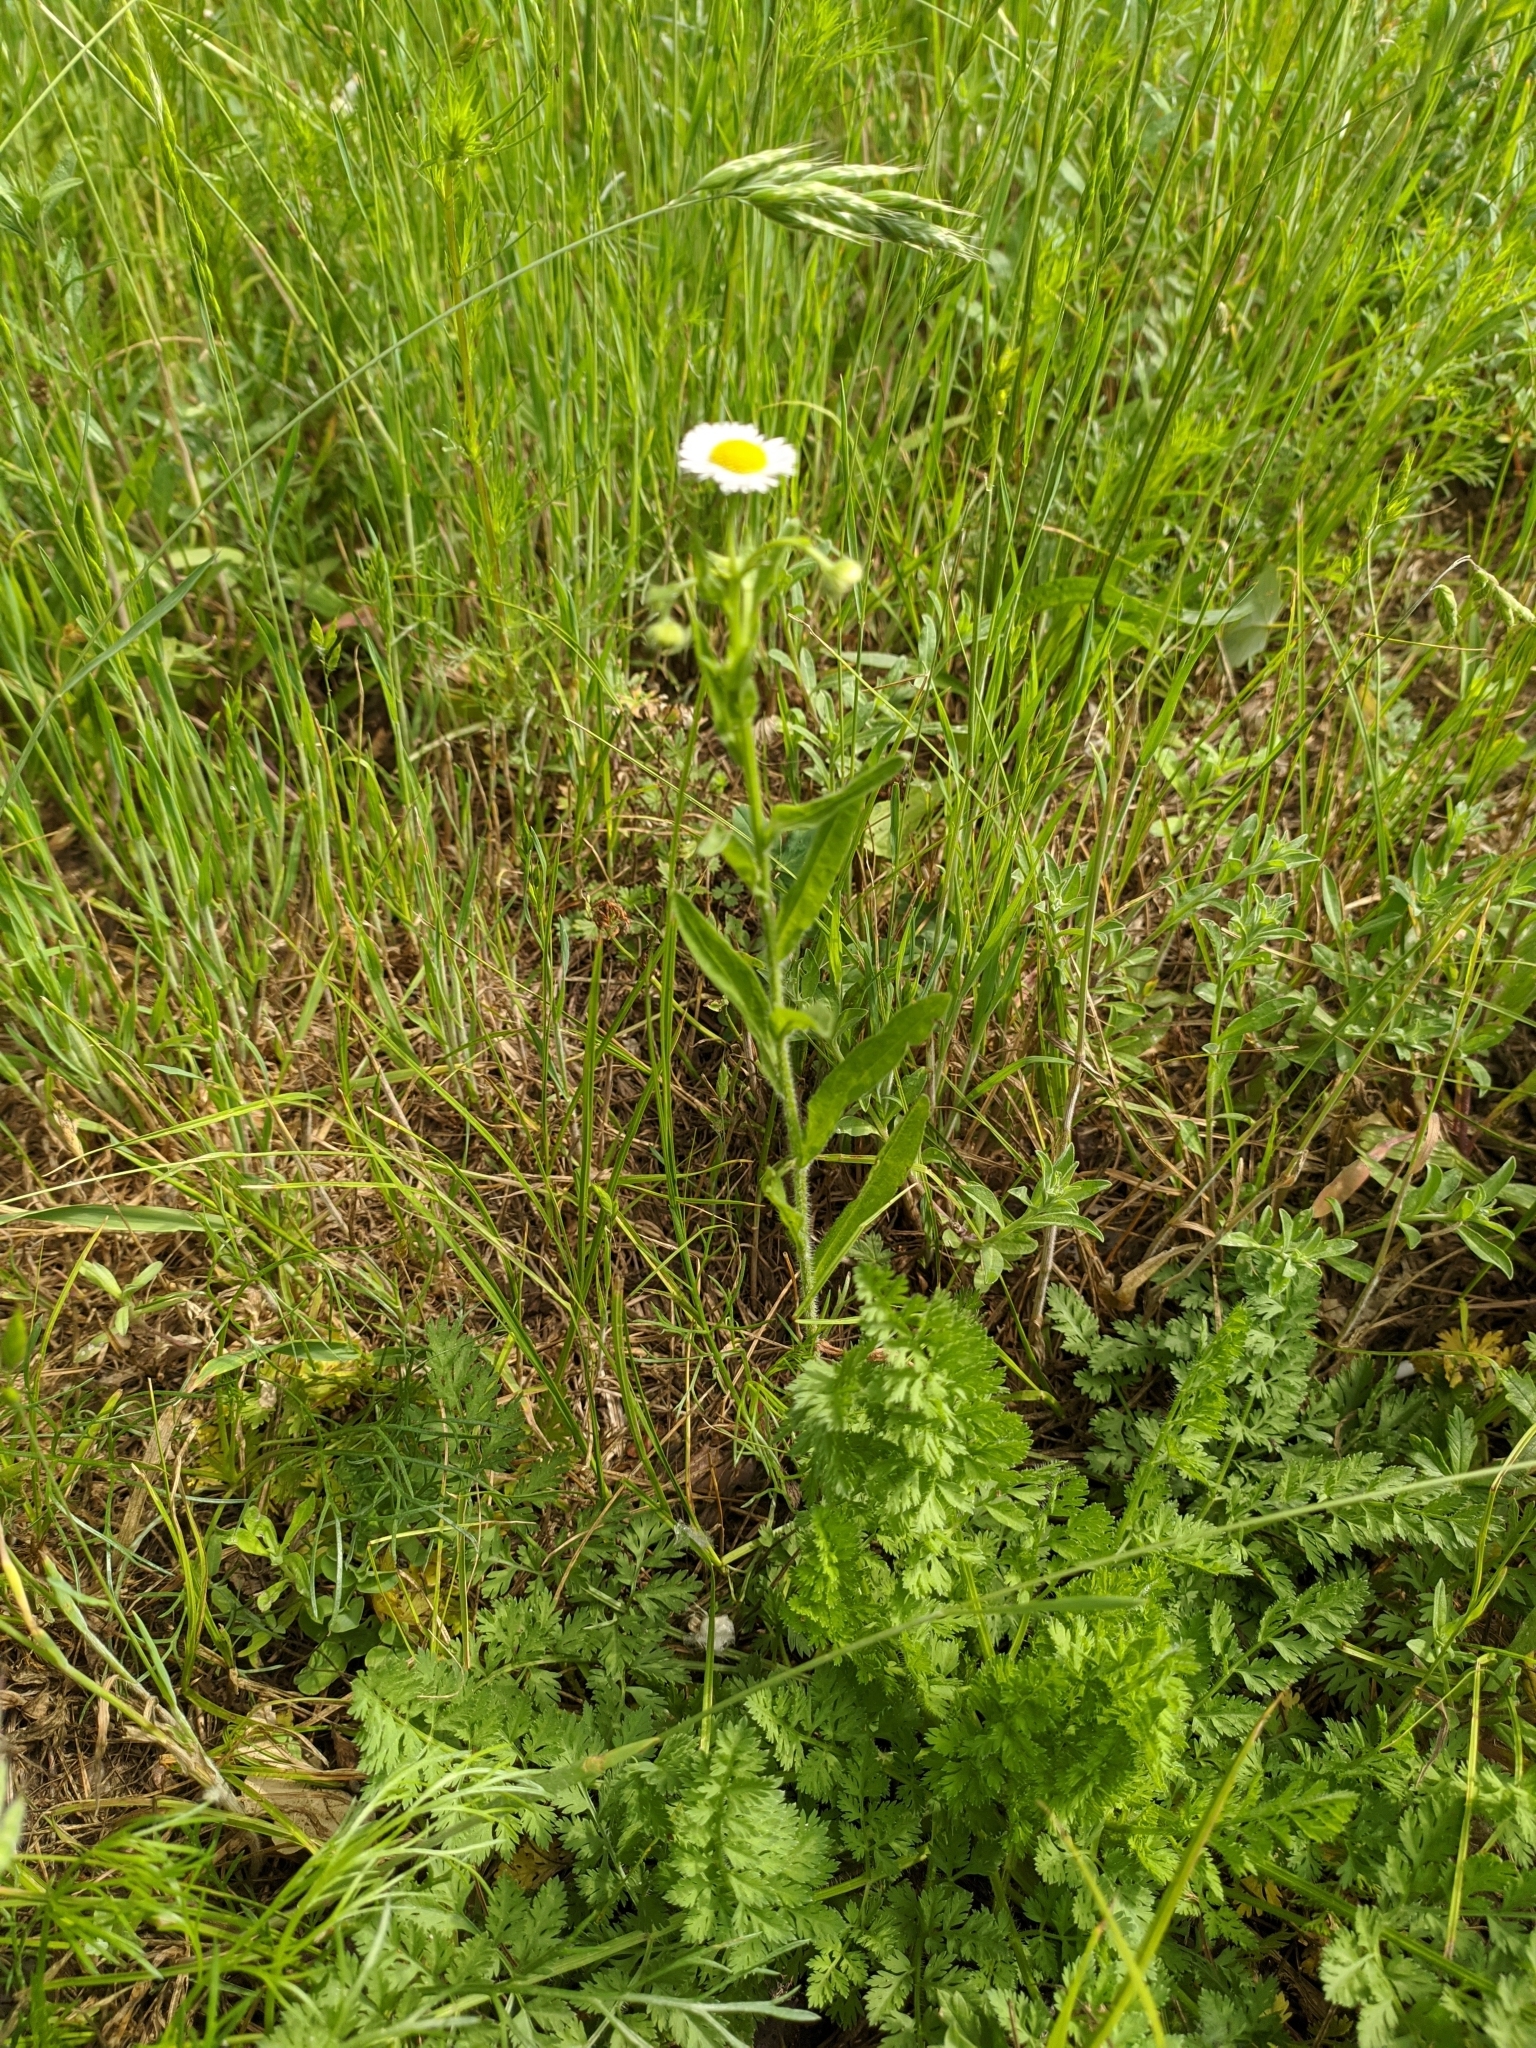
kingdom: Plantae
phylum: Tracheophyta
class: Magnoliopsida
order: Asterales
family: Asteraceae
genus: Erigeron
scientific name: Erigeron annuus
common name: Tall fleabane
